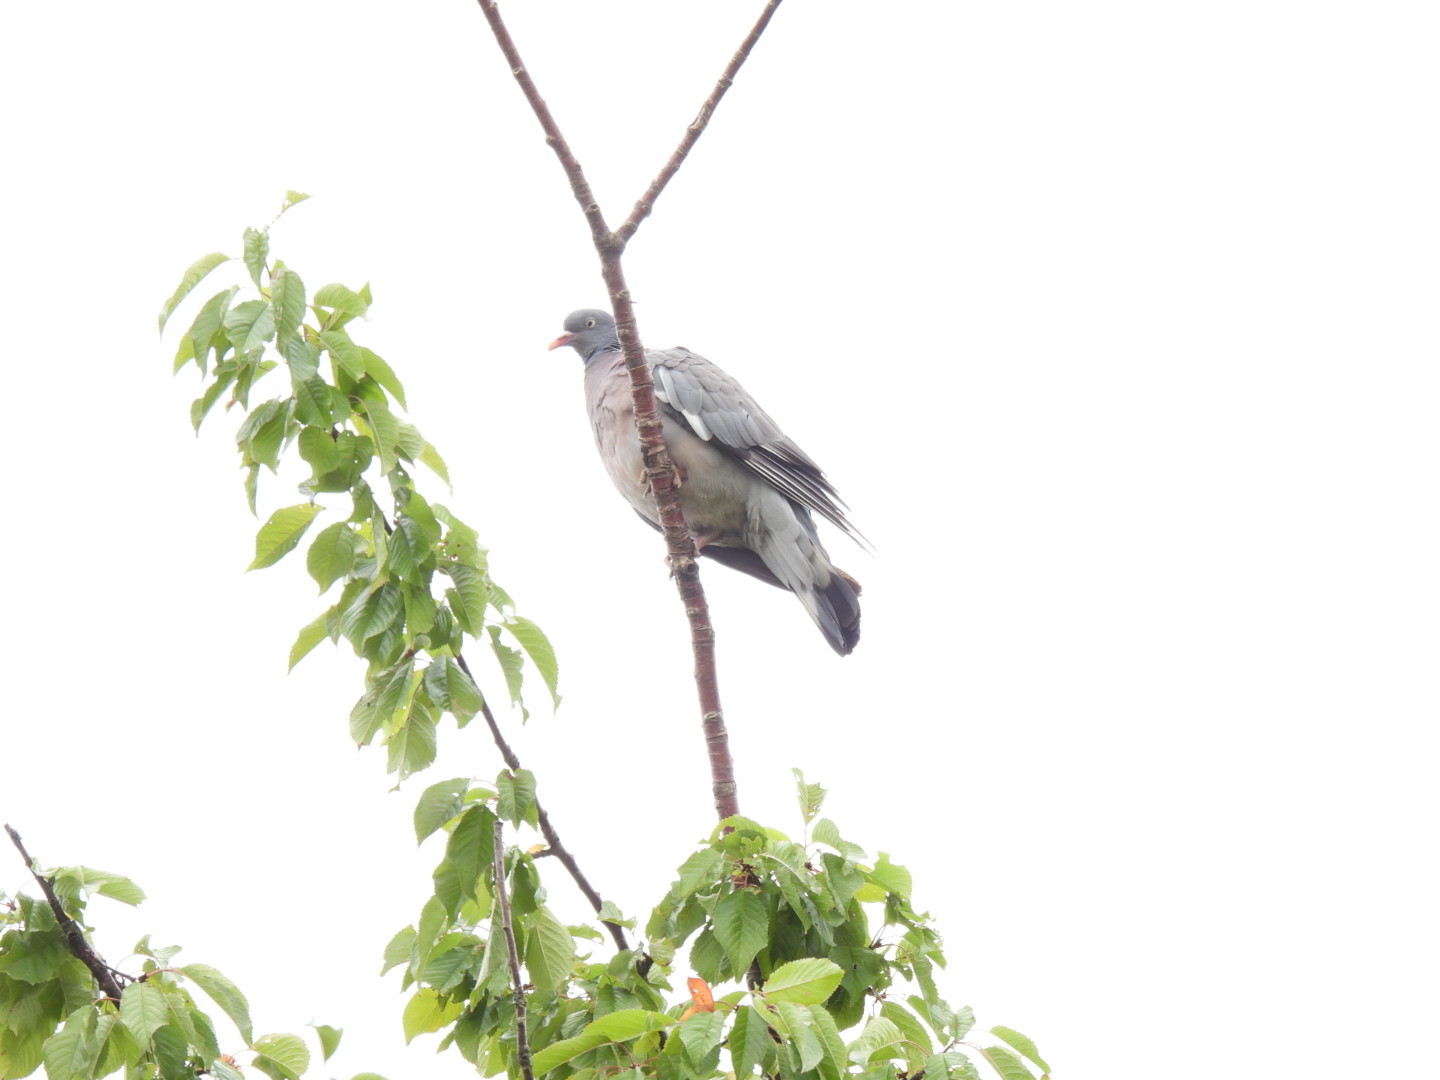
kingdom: Animalia
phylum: Chordata
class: Aves
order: Columbiformes
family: Columbidae
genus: Columba
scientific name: Columba palumbus
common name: Common wood pigeon
